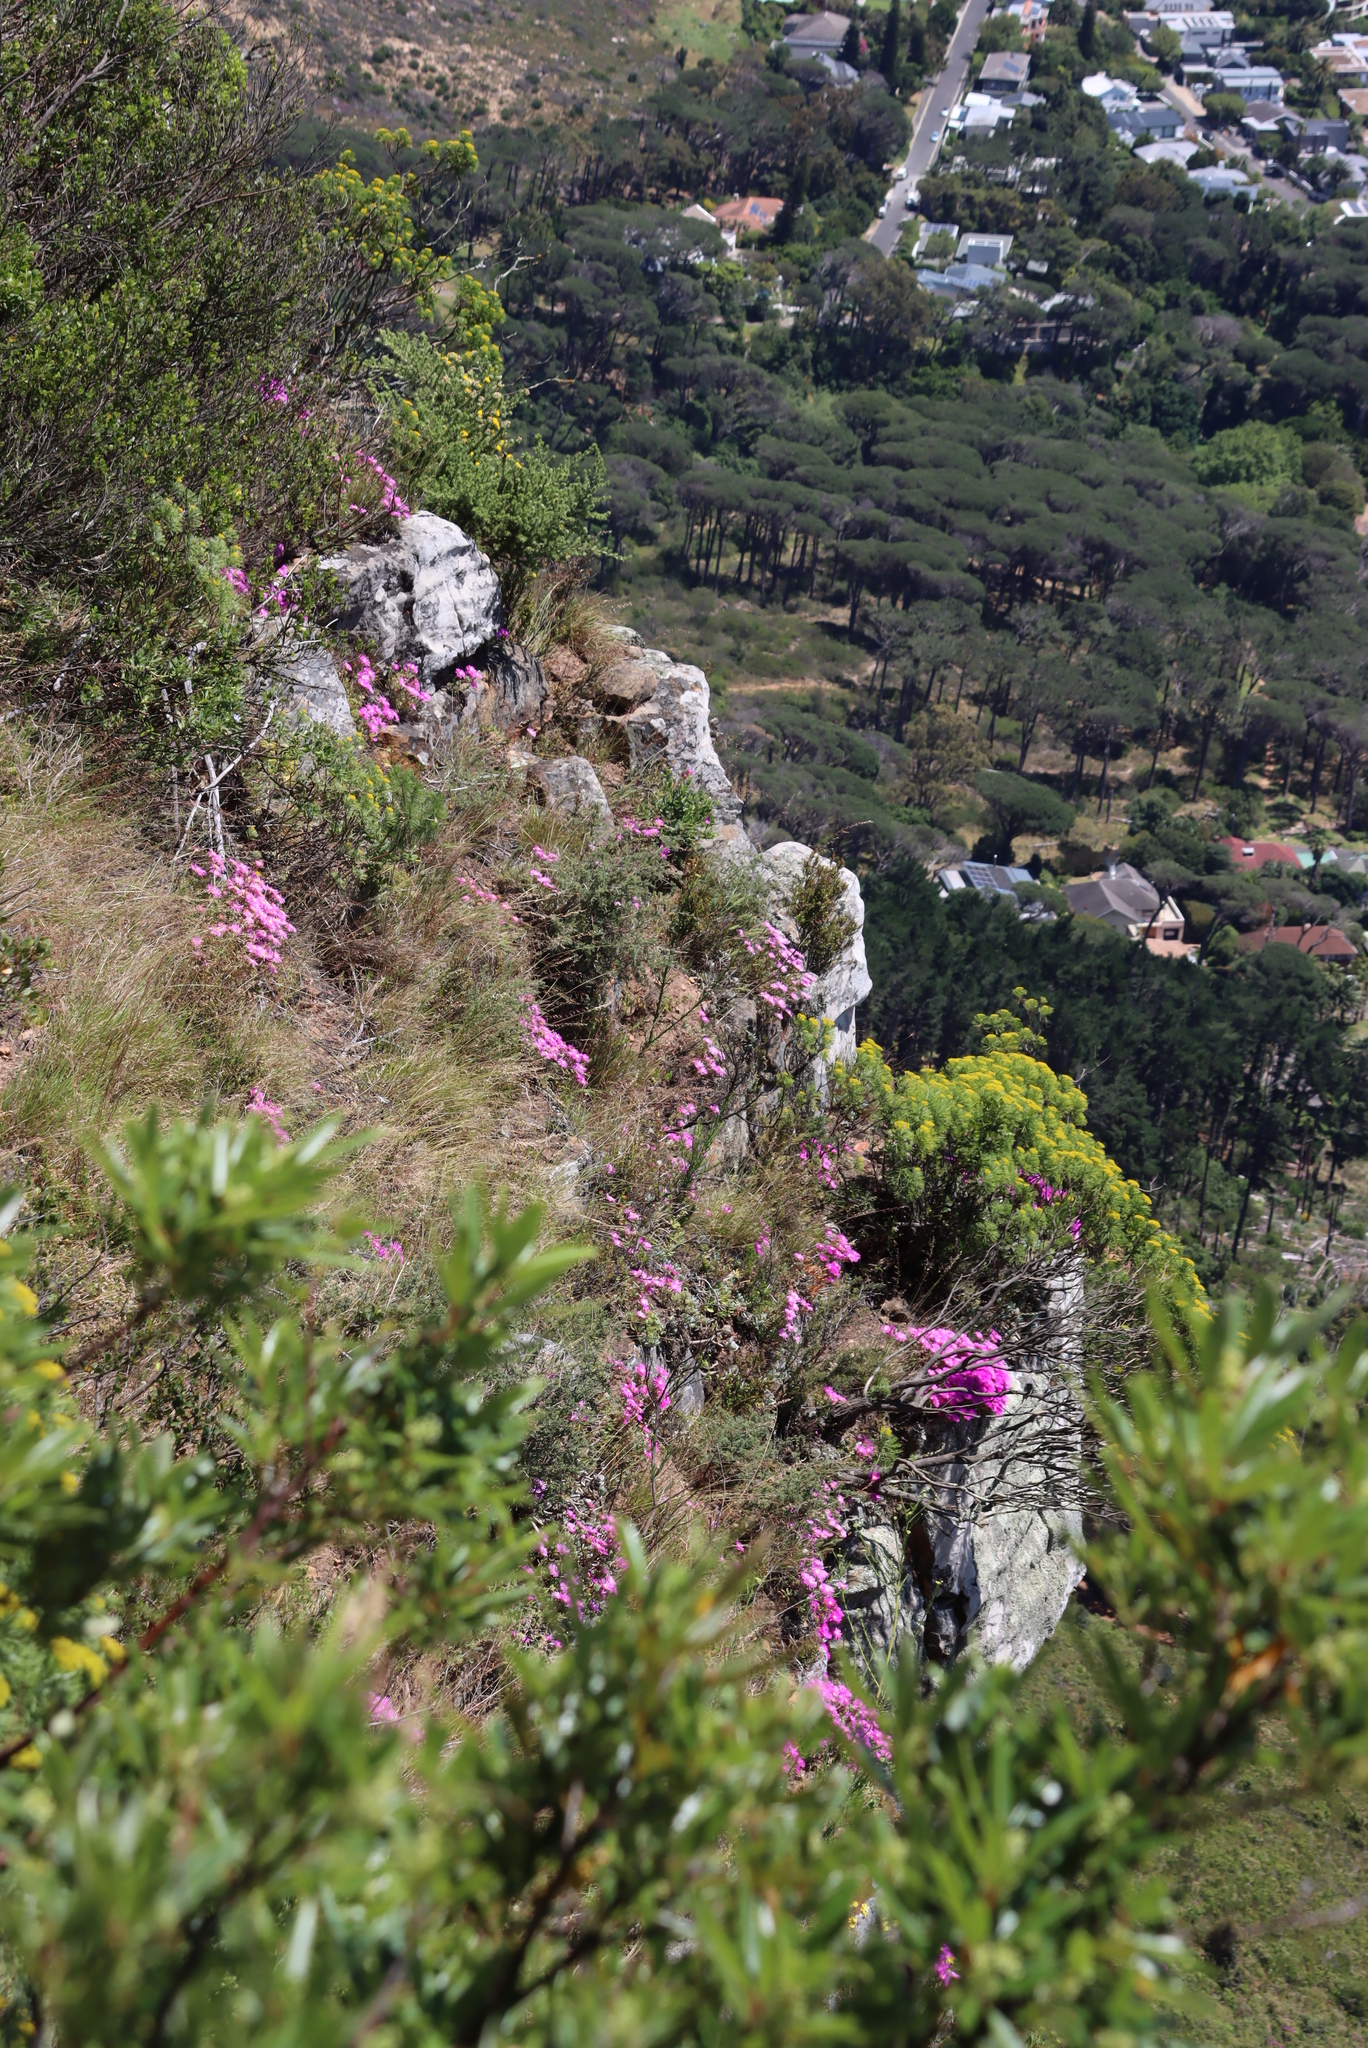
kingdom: Plantae
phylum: Tracheophyta
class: Magnoliopsida
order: Caryophyllales
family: Aizoaceae
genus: Oscularia
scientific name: Oscularia falciformis
